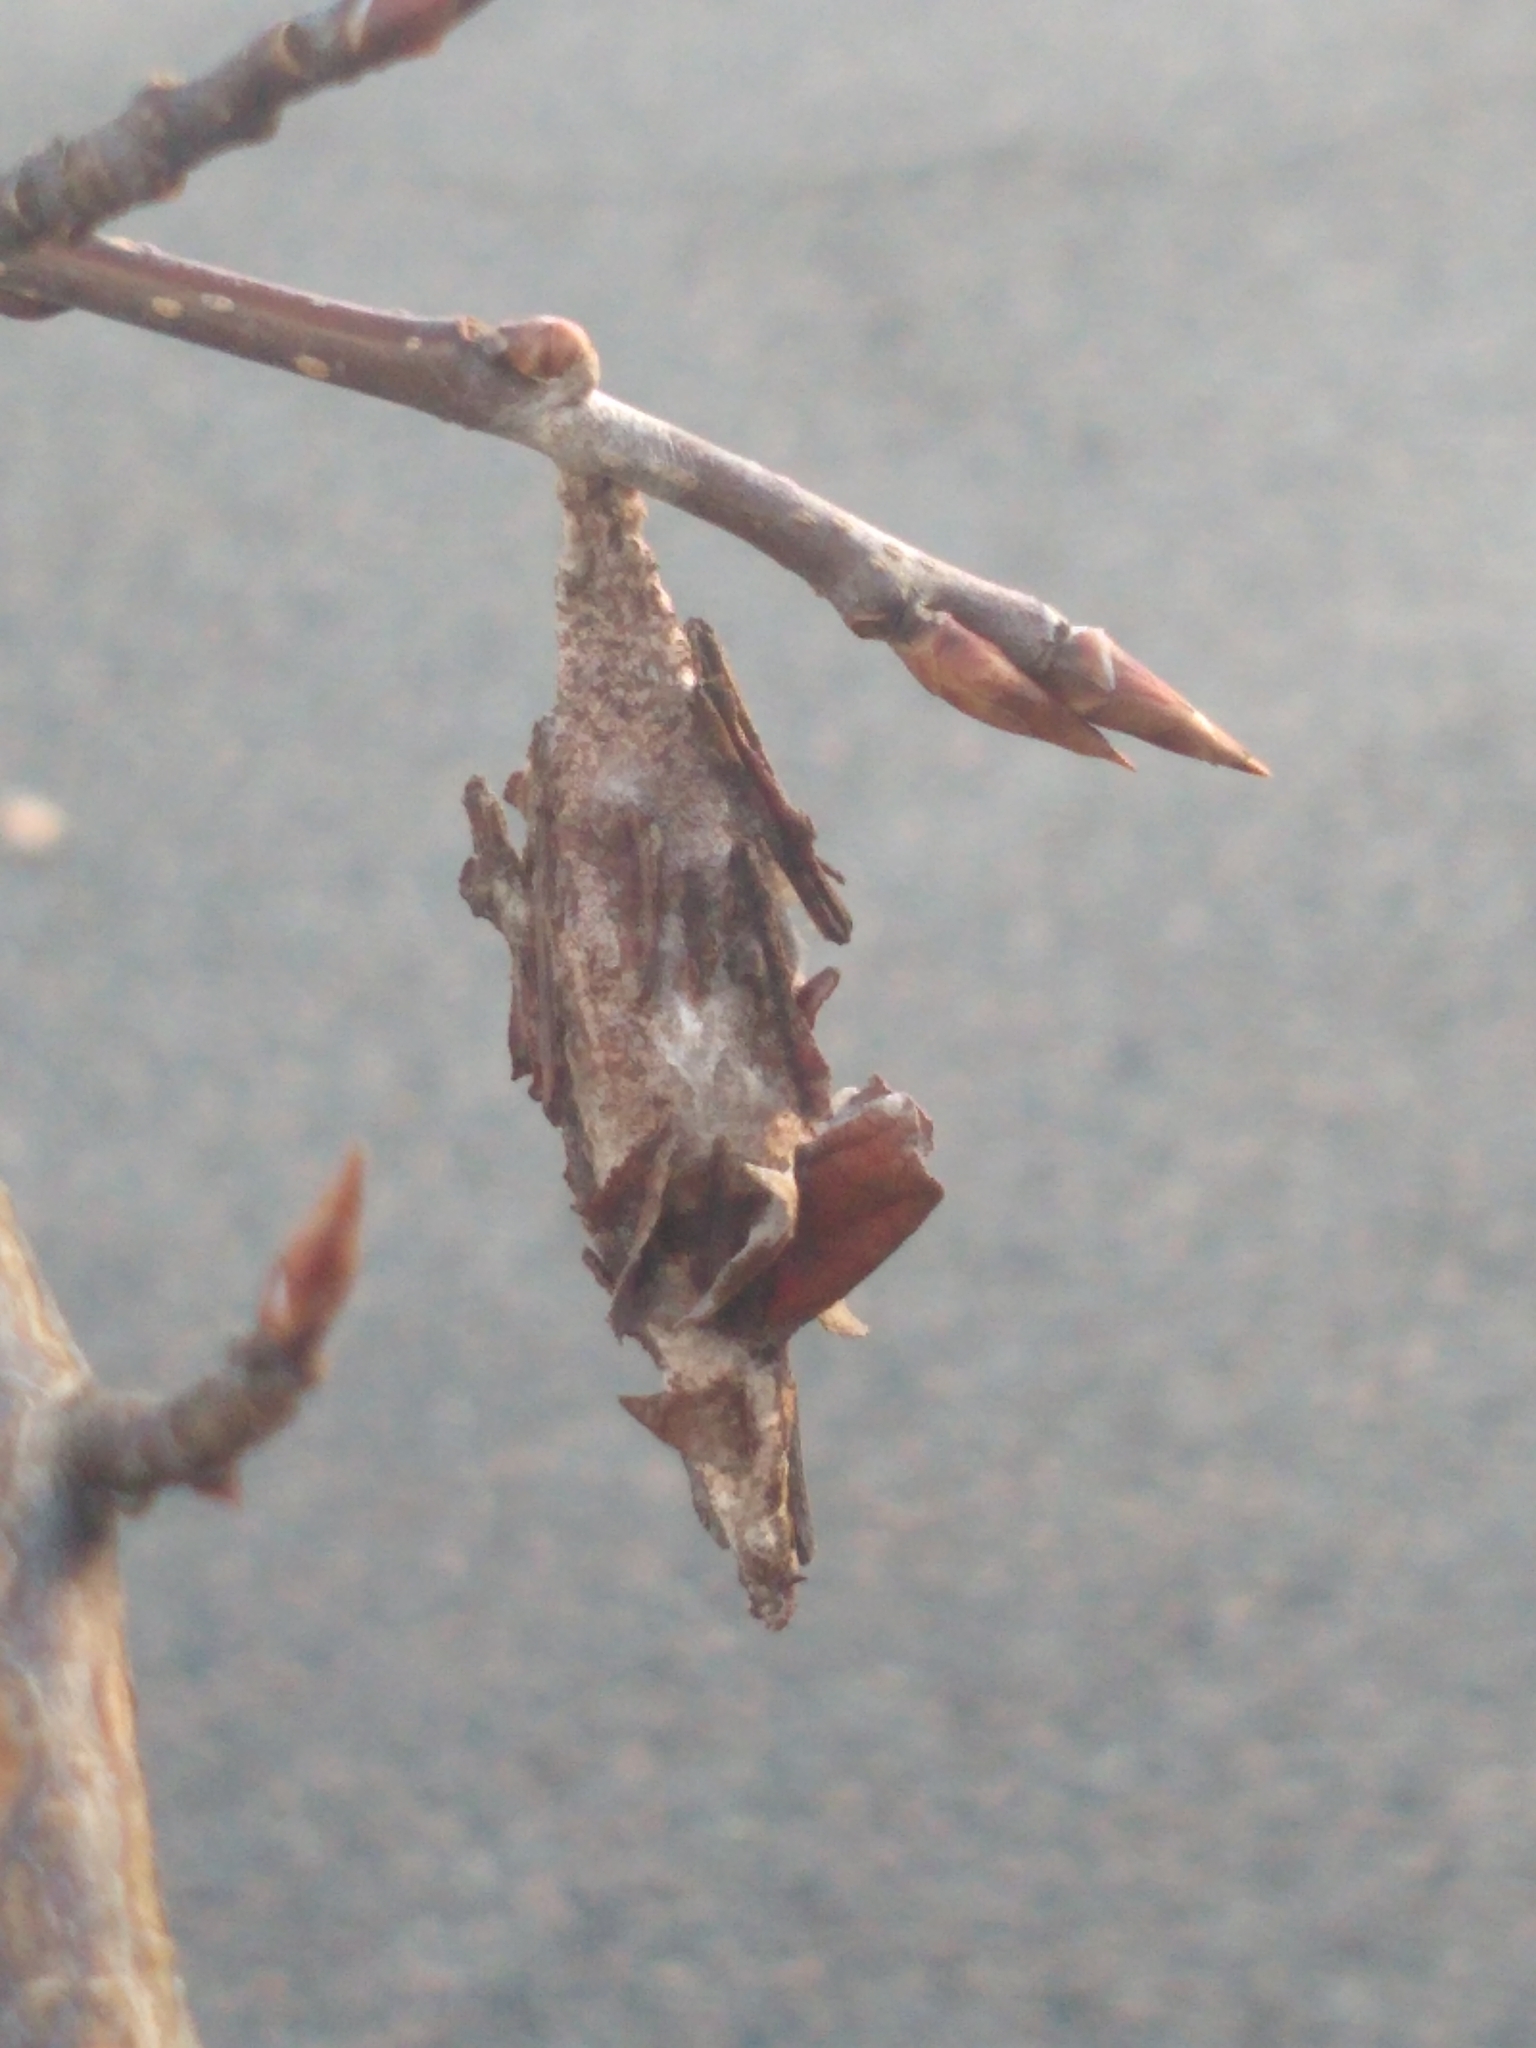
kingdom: Animalia
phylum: Arthropoda
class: Insecta
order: Lepidoptera
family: Psychidae
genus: Thyridopteryx
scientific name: Thyridopteryx ephemeraeformis
